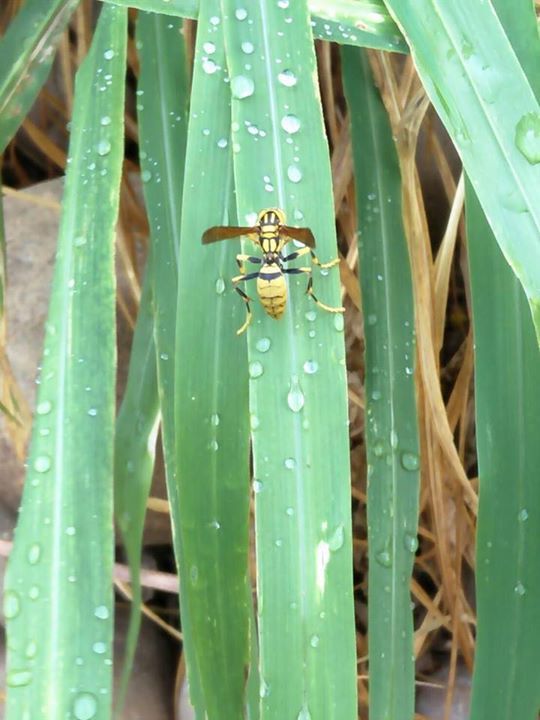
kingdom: Animalia
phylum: Arthropoda
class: Insecta
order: Hymenoptera
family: Eumenidae
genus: Polistes
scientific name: Polistes rothneyi
